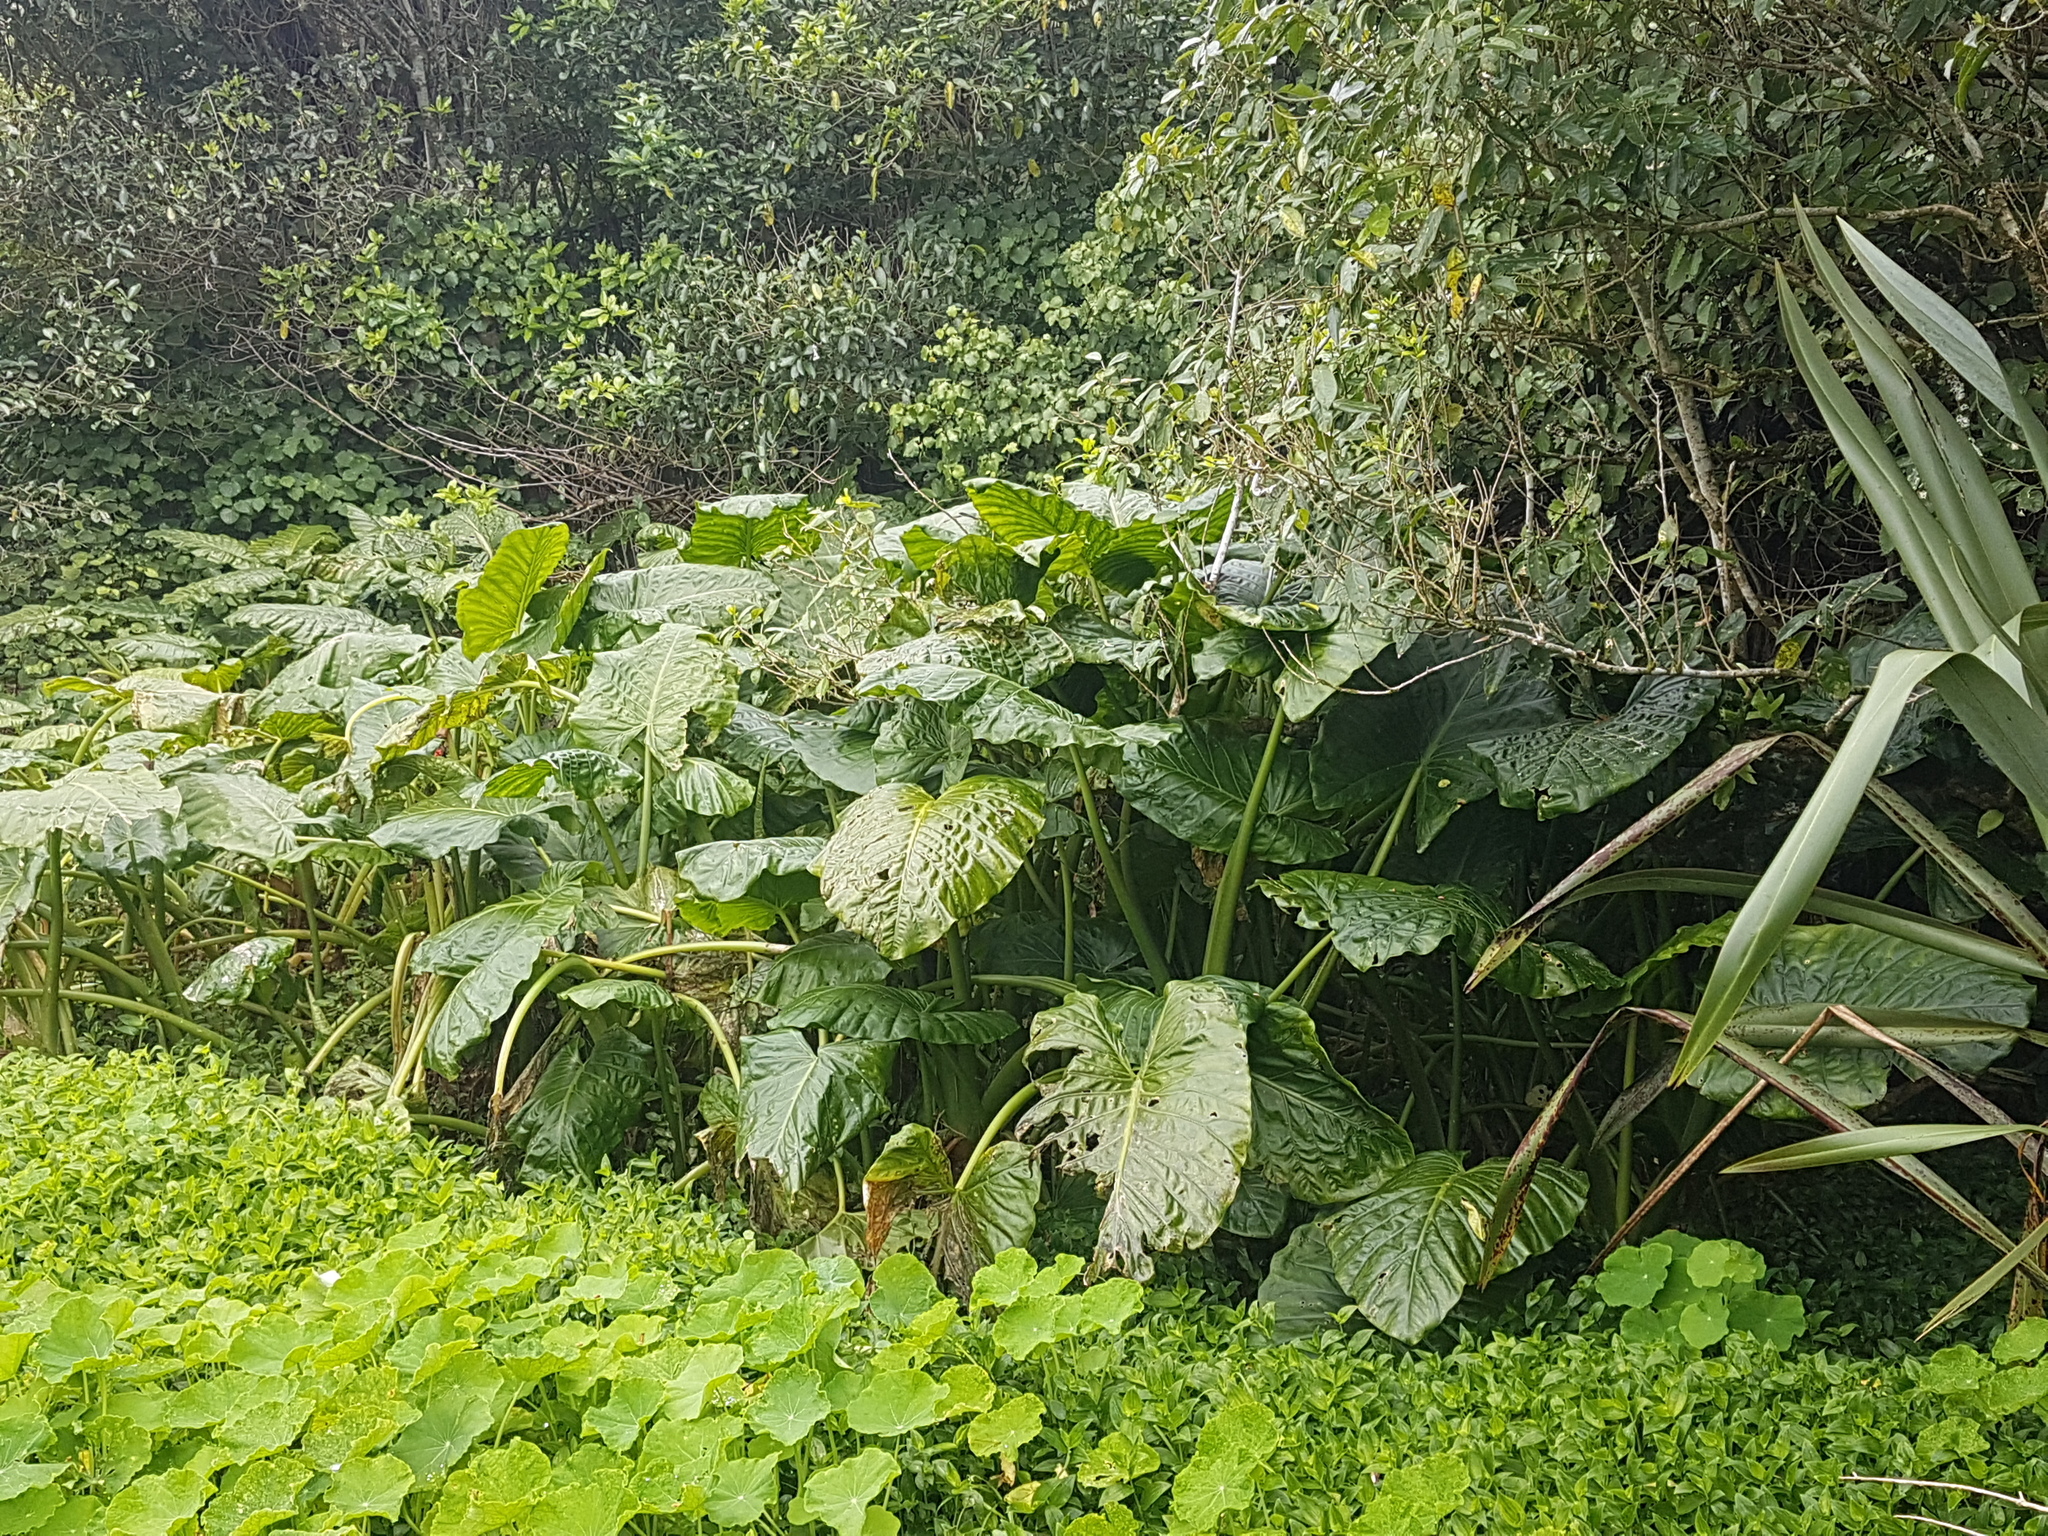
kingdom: Plantae
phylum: Tracheophyta
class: Liliopsida
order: Alismatales
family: Araceae
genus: Alocasia
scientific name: Alocasia brisbanensis
